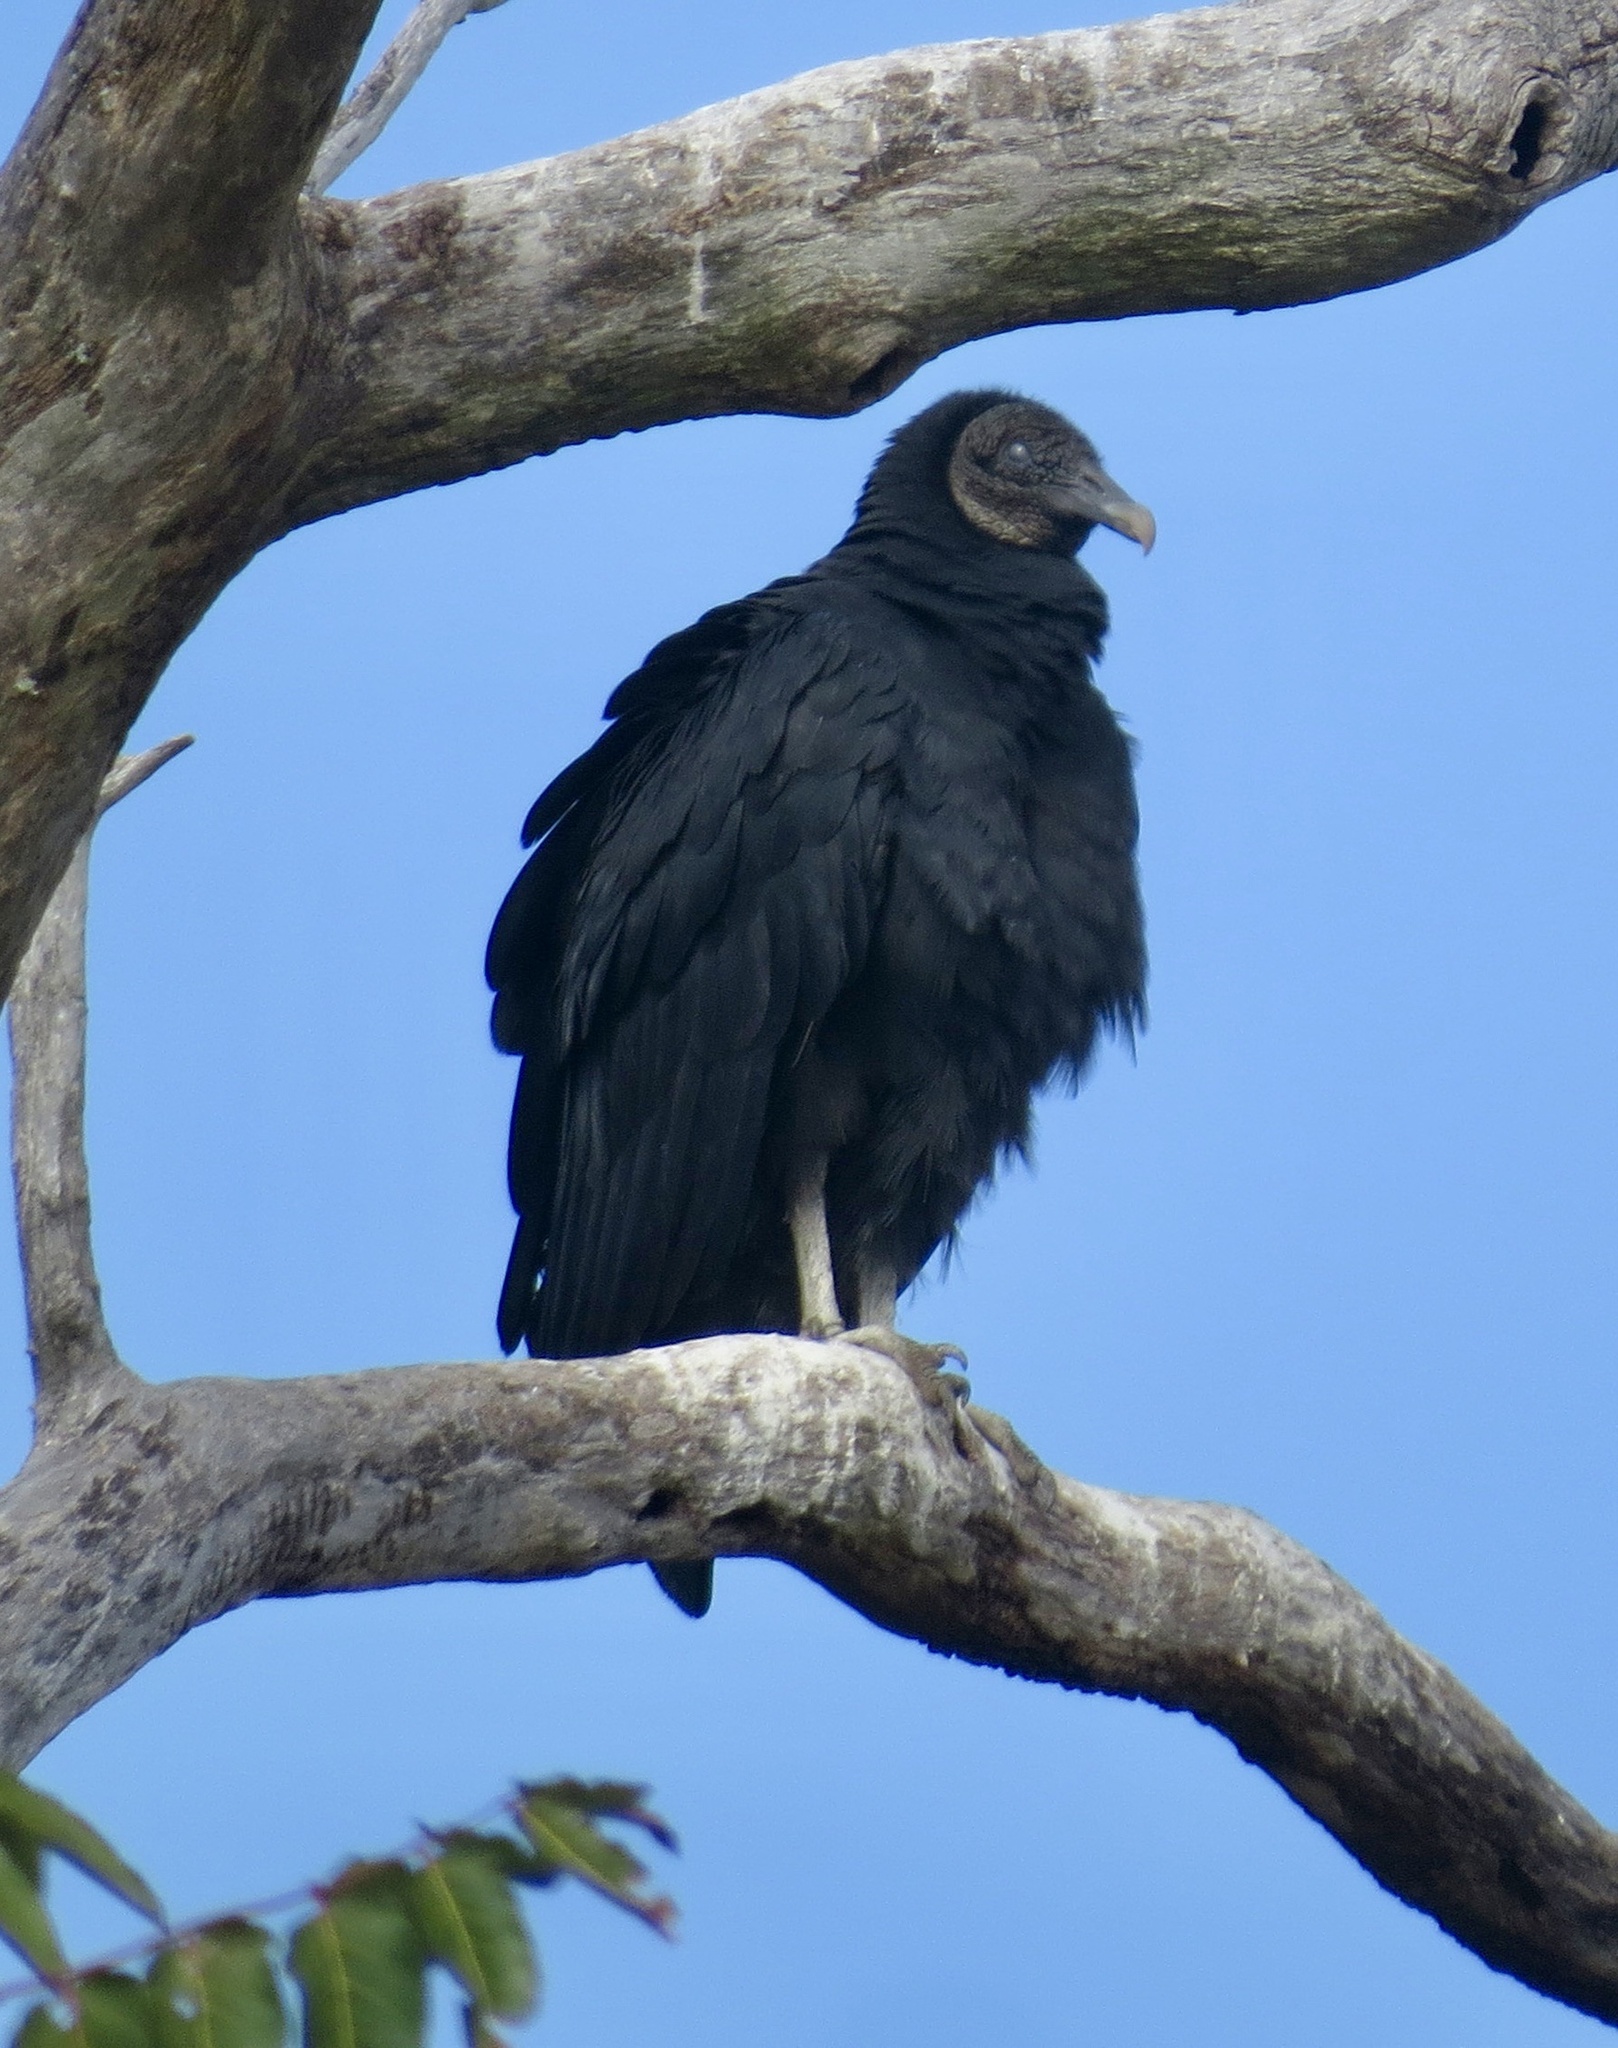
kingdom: Animalia
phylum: Chordata
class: Aves
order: Accipitriformes
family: Cathartidae
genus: Coragyps
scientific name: Coragyps atratus
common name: Black vulture
